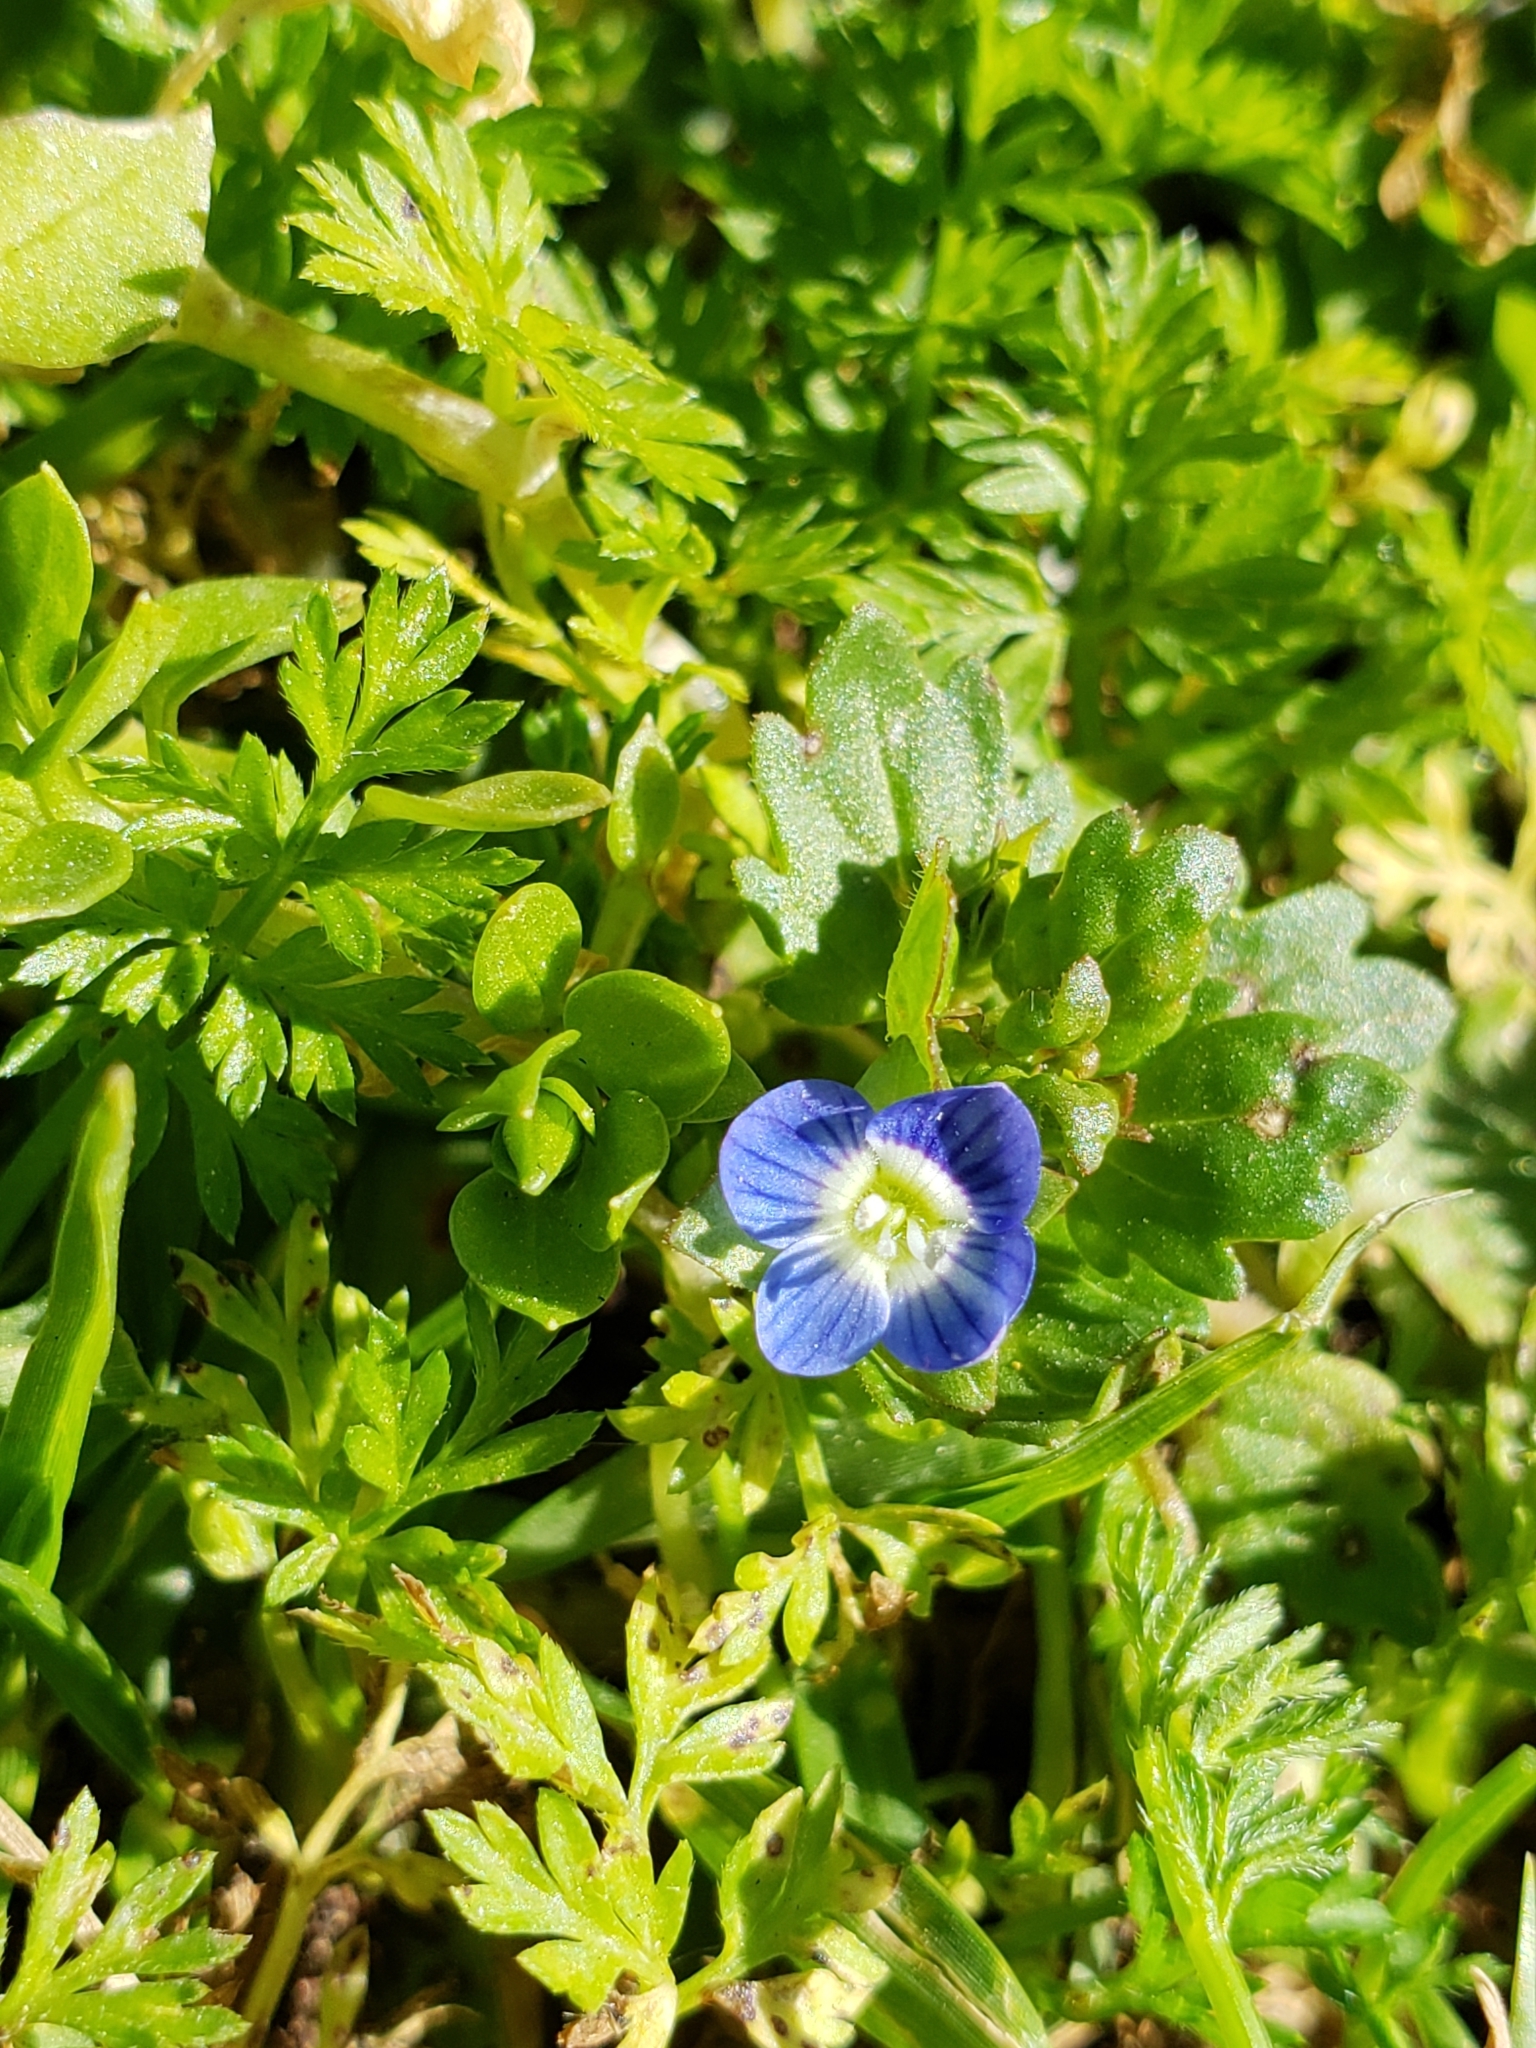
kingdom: Plantae
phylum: Tracheophyta
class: Magnoliopsida
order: Lamiales
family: Plantaginaceae
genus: Veronica
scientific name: Veronica polita
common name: Grey field-speedwell
